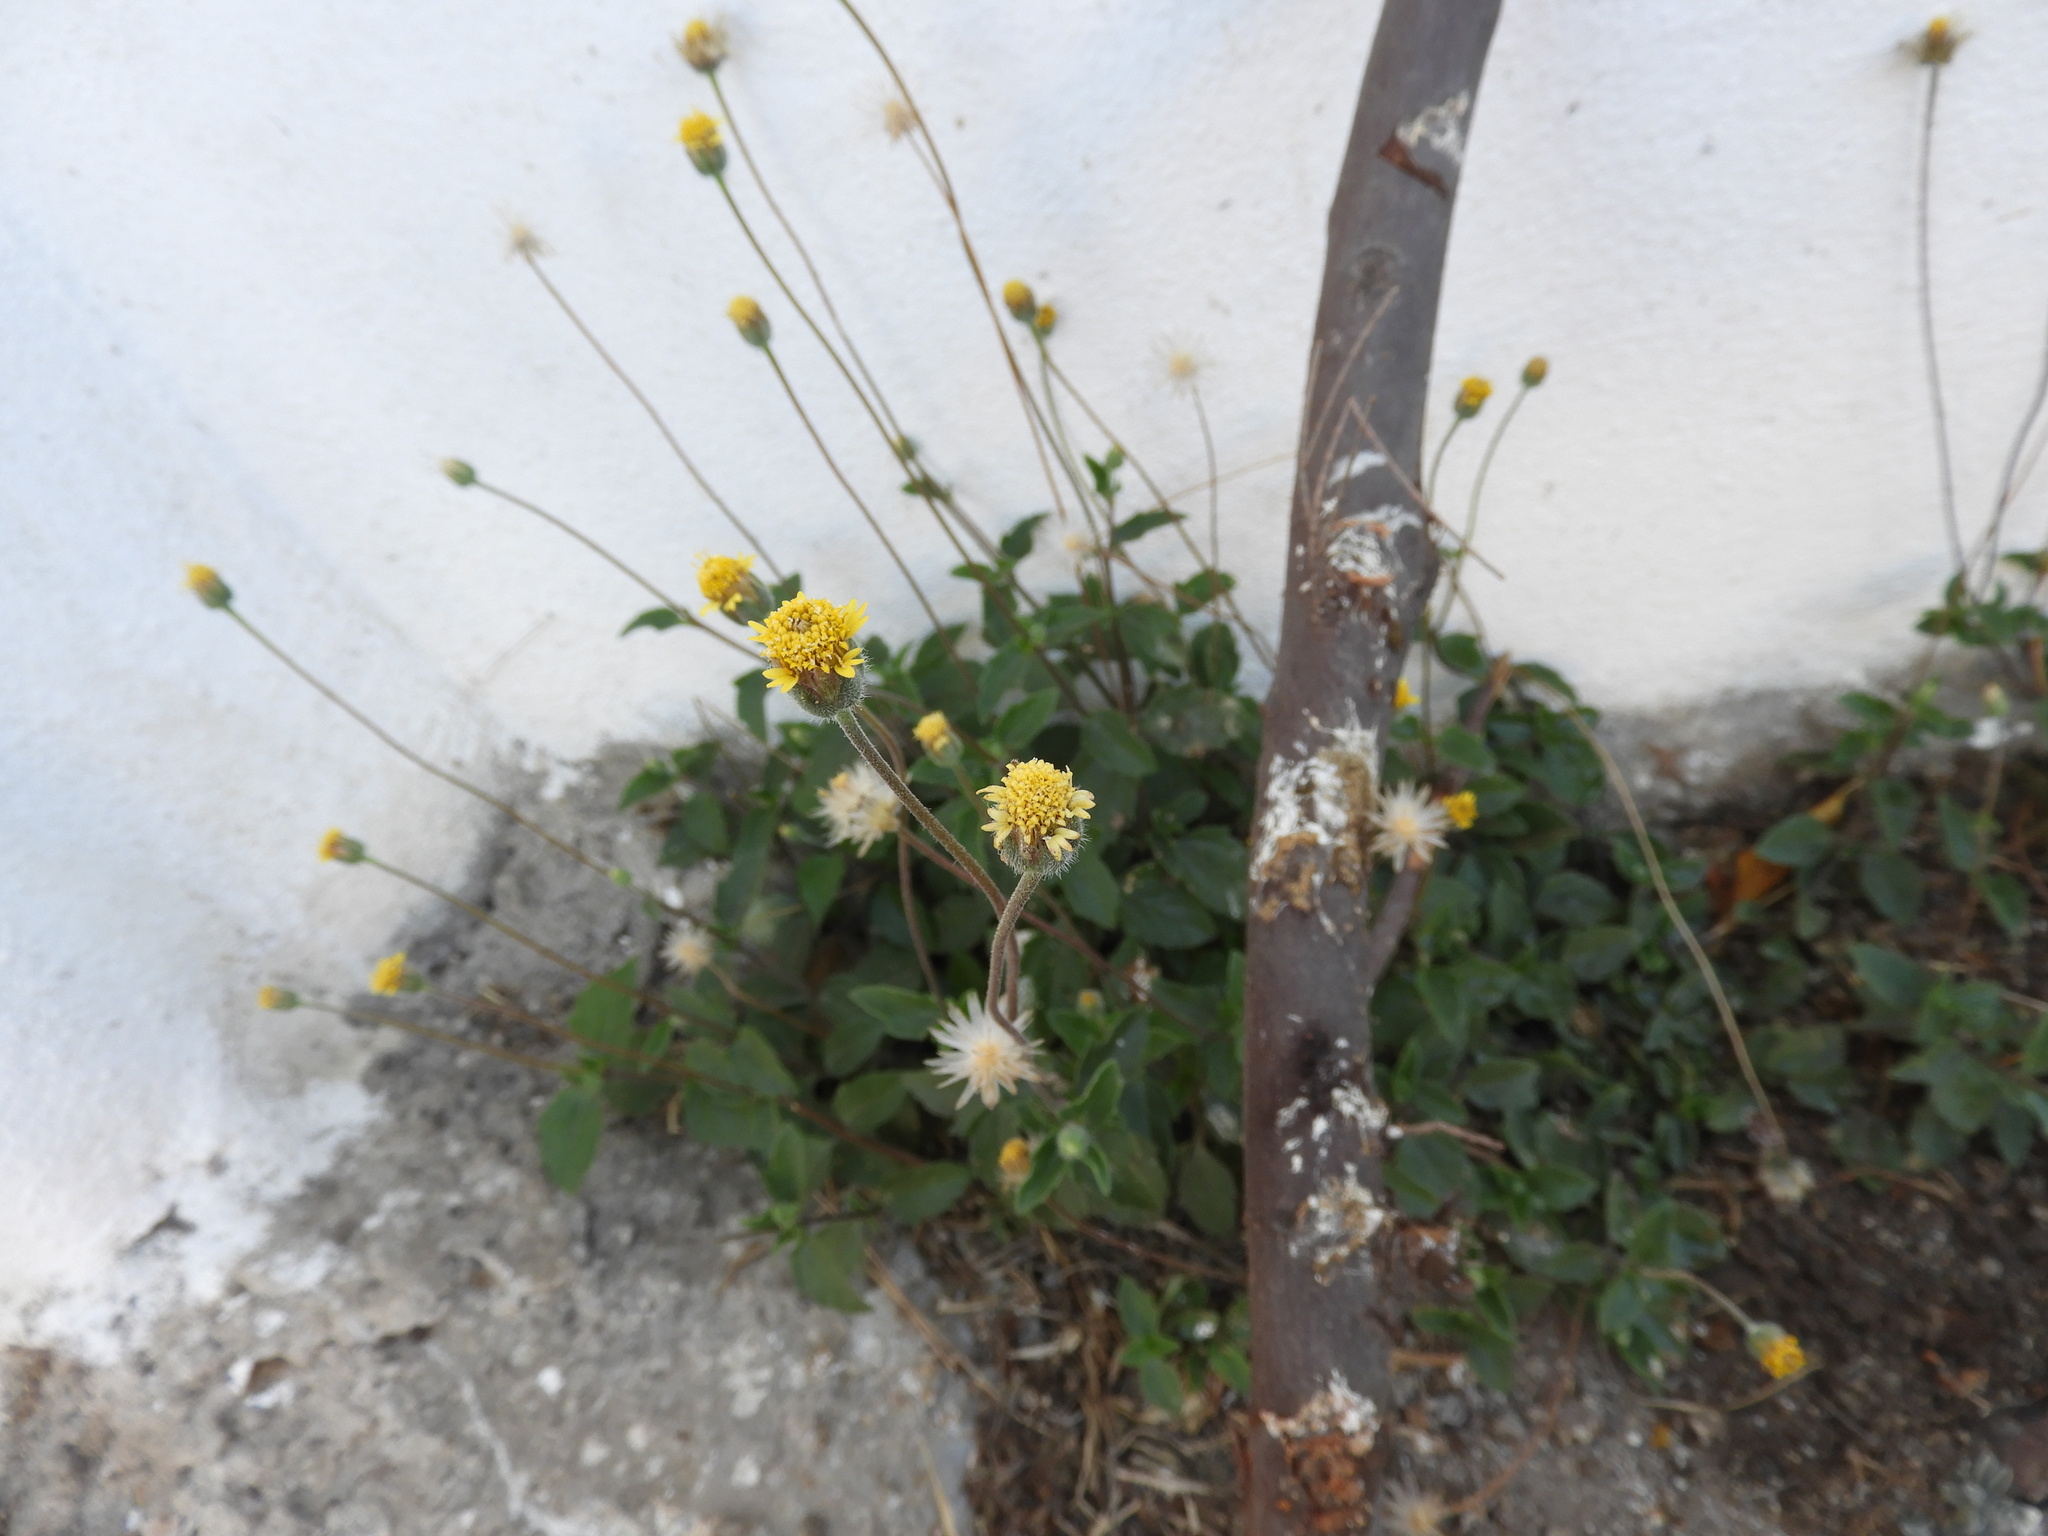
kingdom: Plantae
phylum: Tracheophyta
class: Magnoliopsida
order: Asterales
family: Asteraceae
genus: Tridax
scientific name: Tridax procumbens
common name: Coatbuttons
